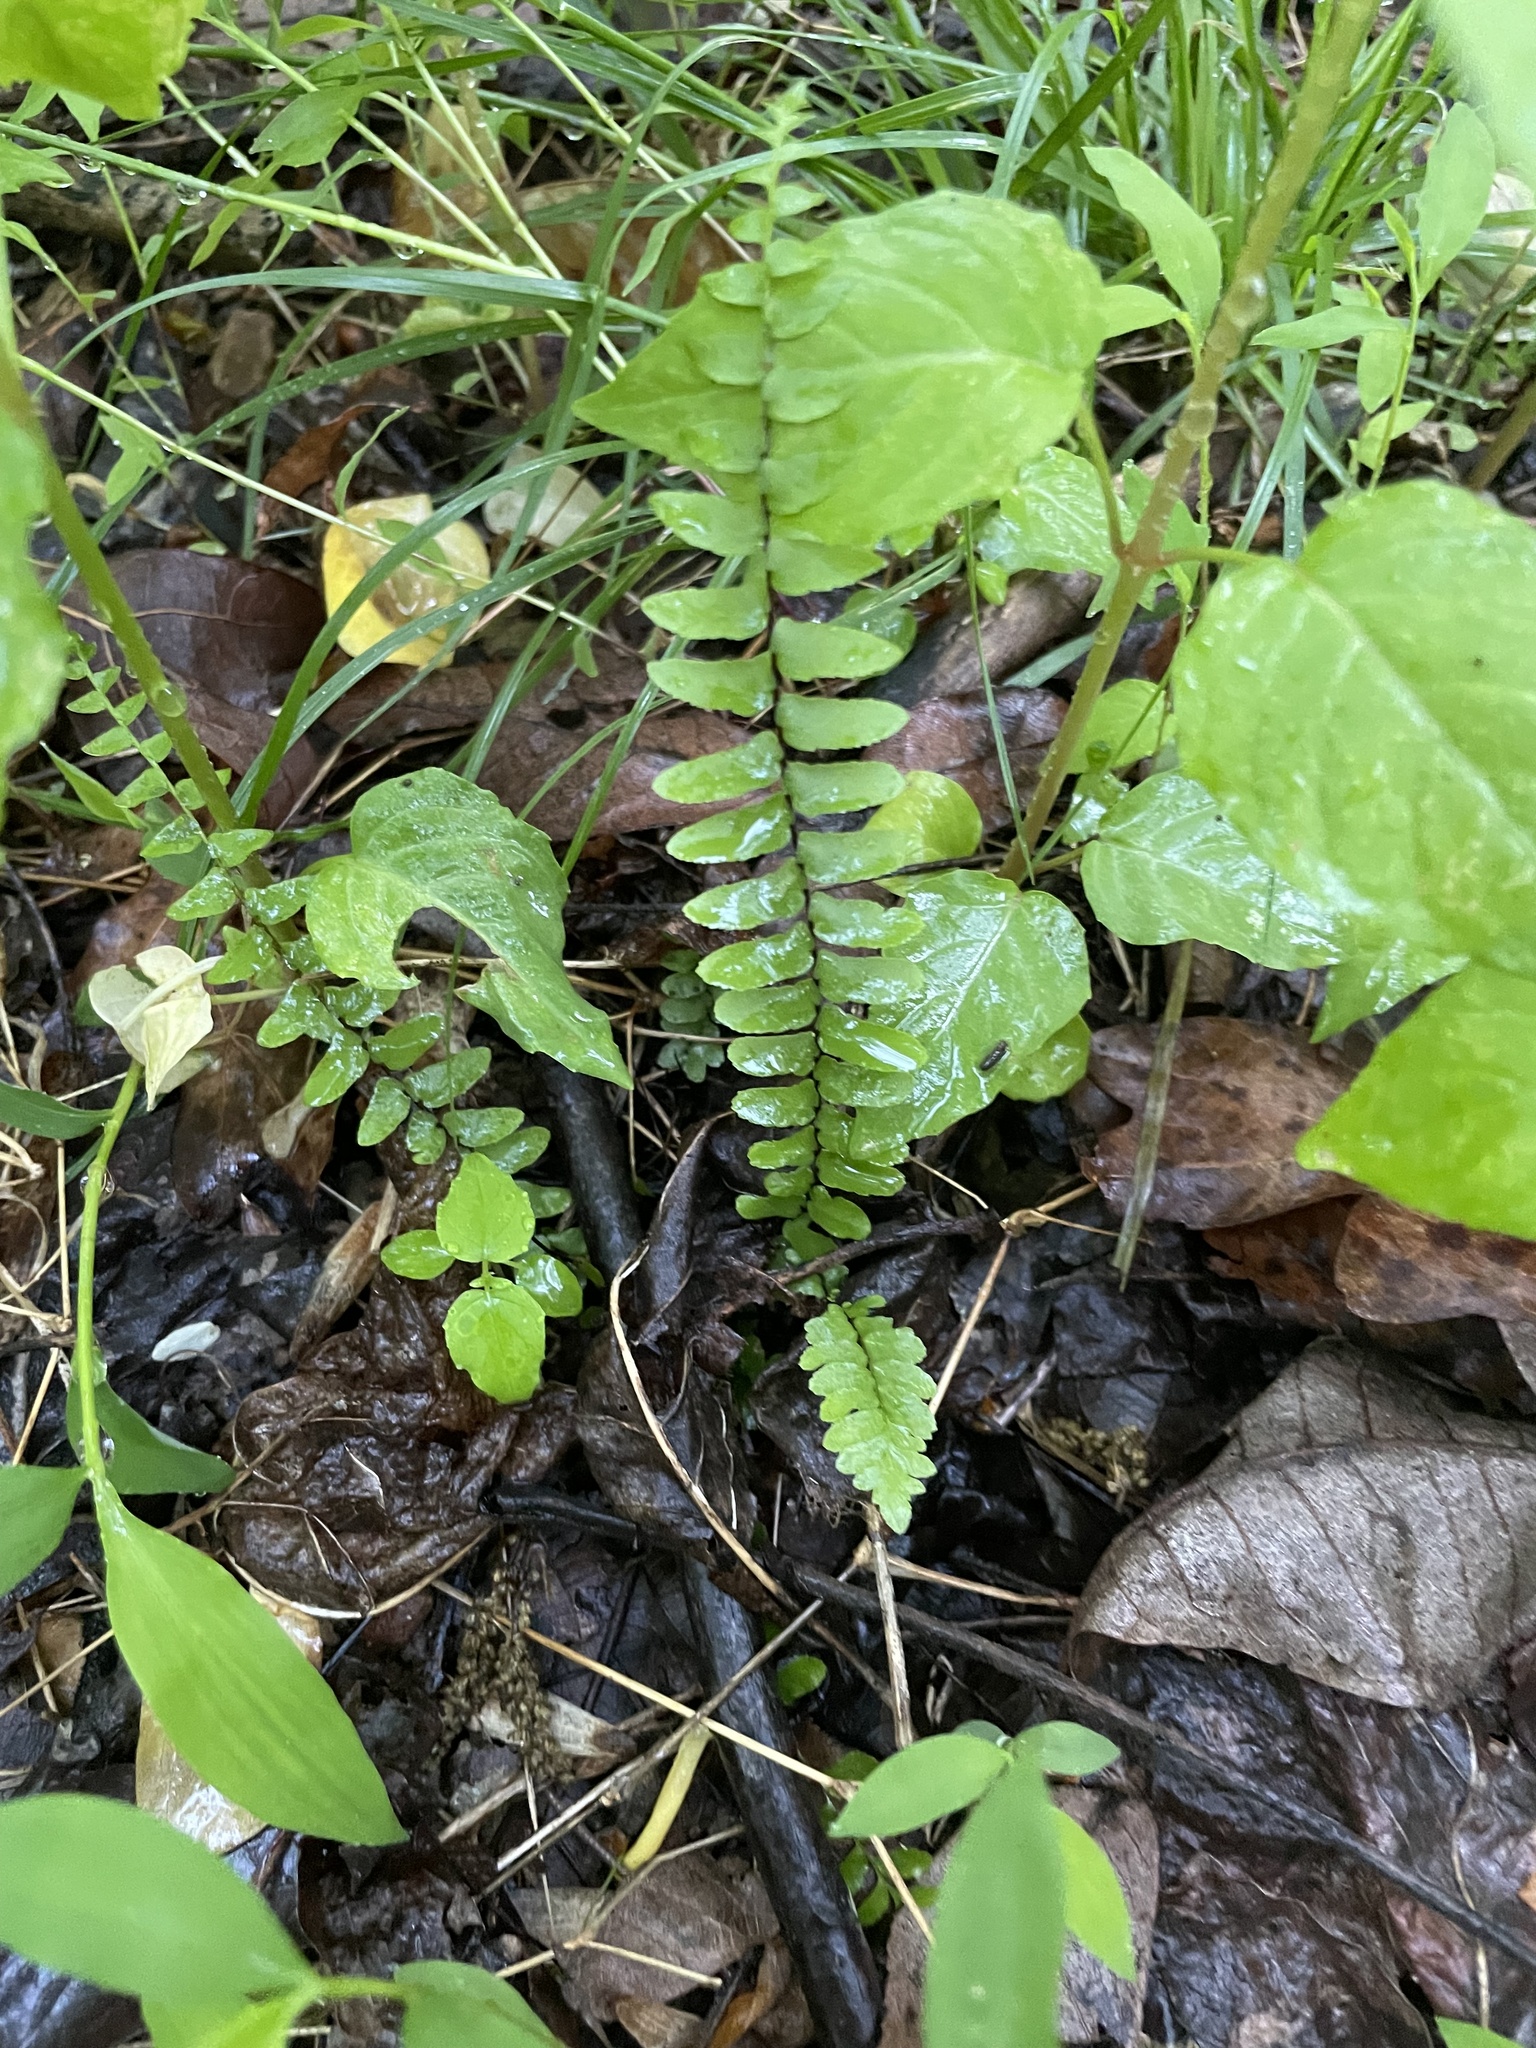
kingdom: Plantae
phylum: Tracheophyta
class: Polypodiopsida
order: Polypodiales
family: Aspleniaceae
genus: Asplenium
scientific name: Asplenium platyneuron
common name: Ebony spleenwort
